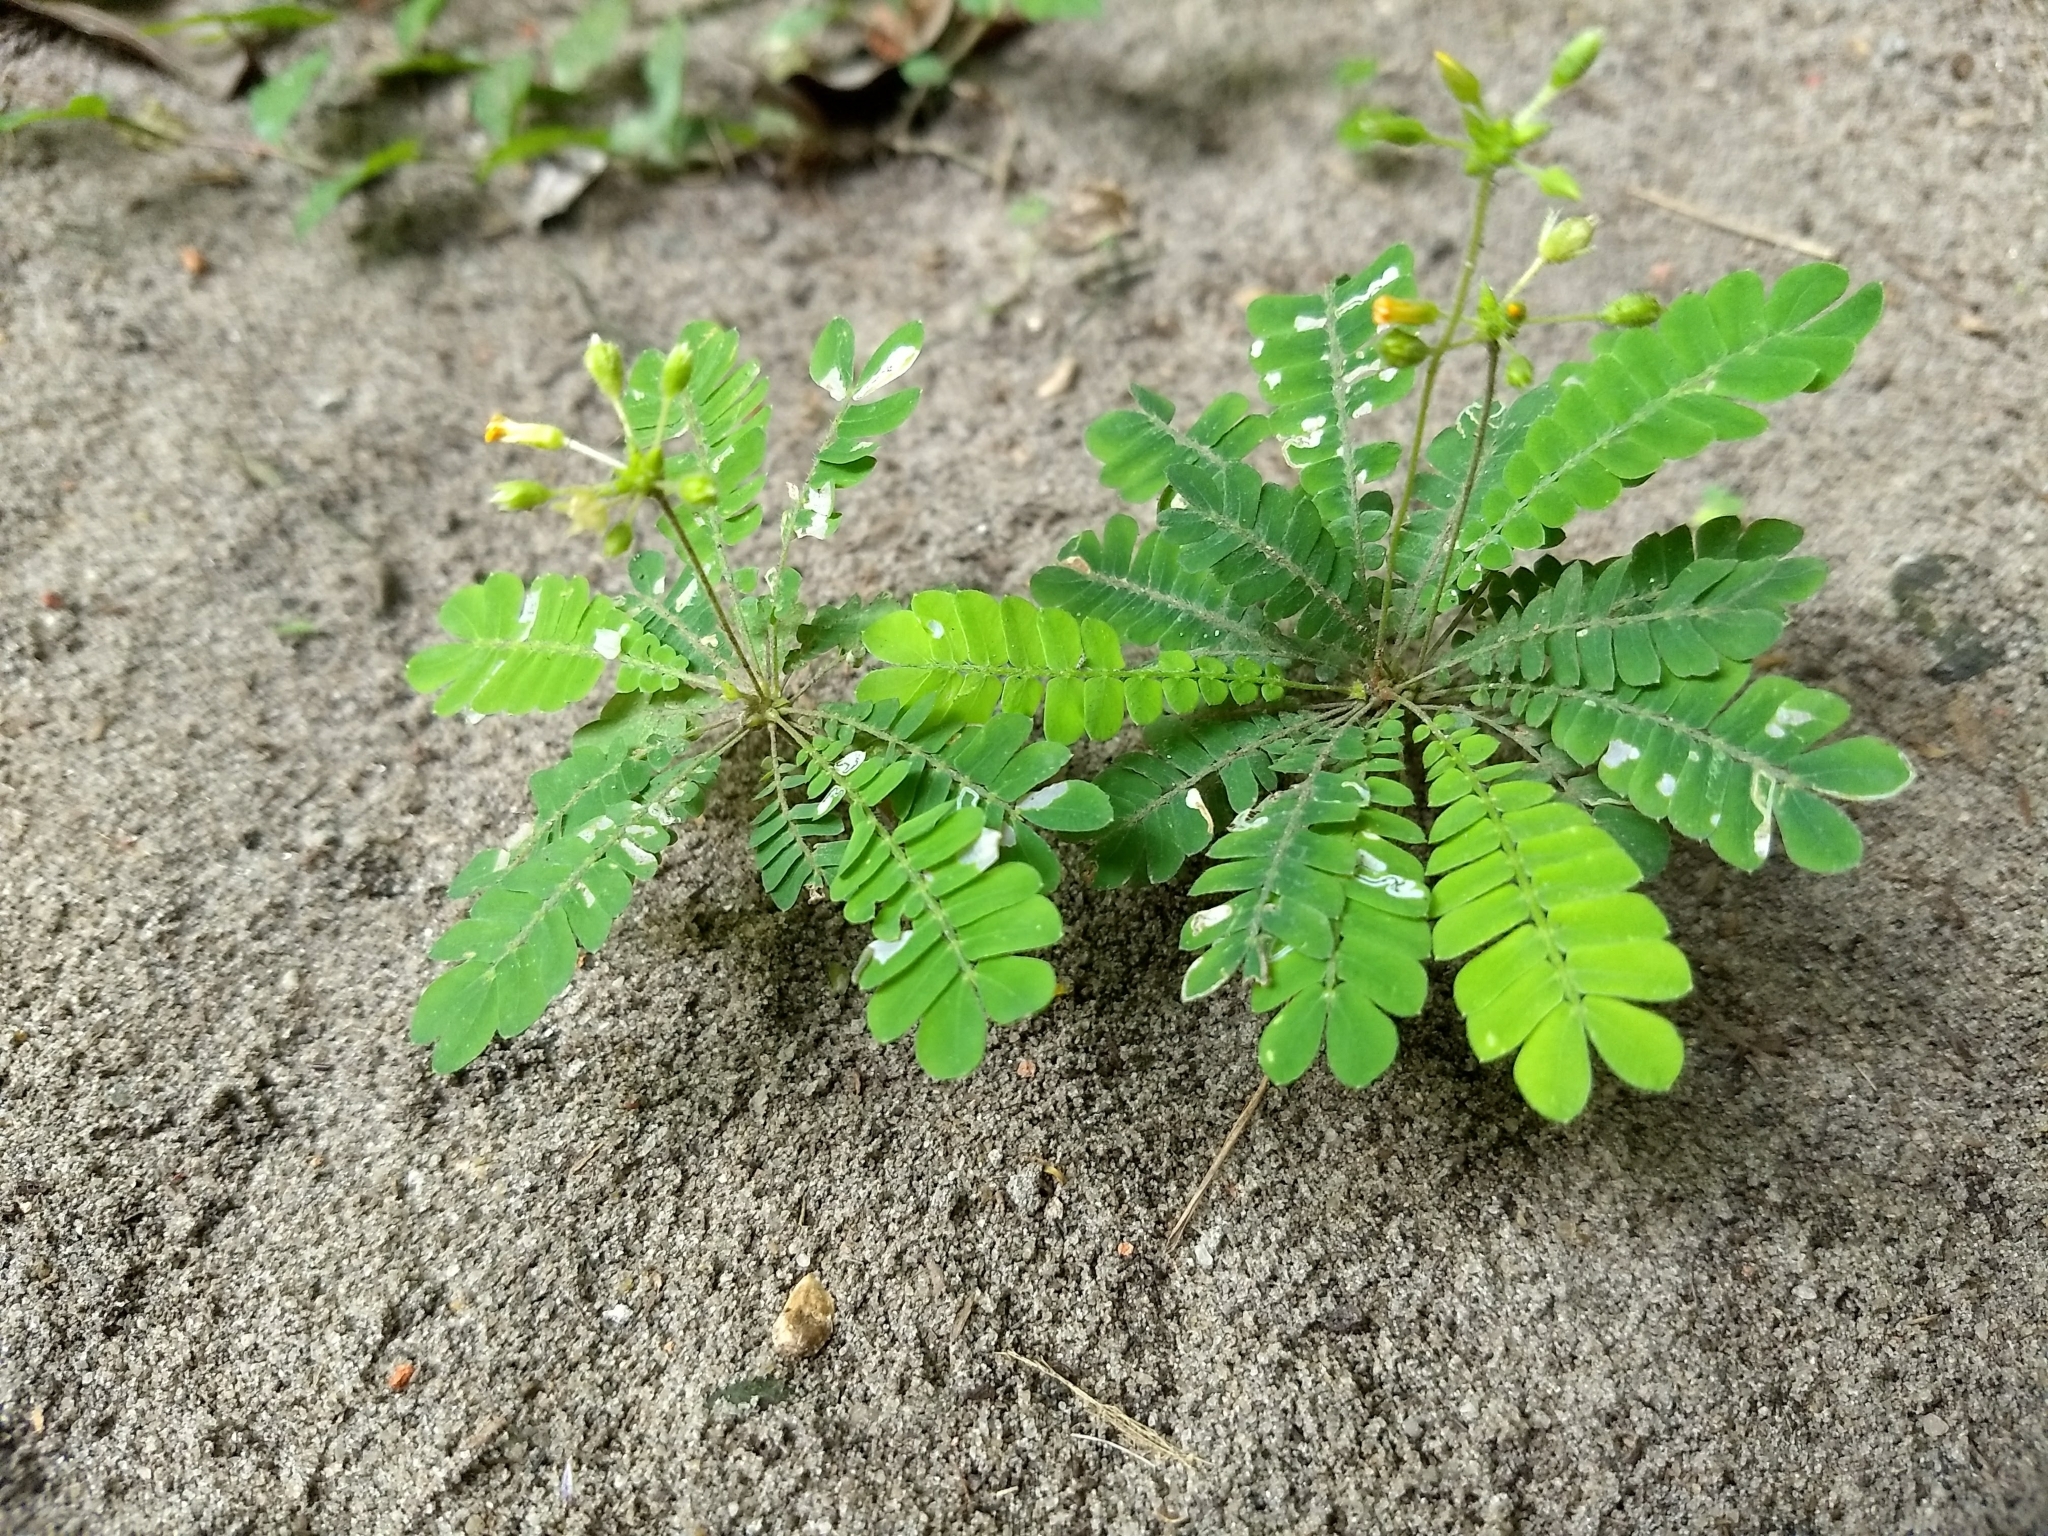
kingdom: Plantae
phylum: Tracheophyta
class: Magnoliopsida
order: Oxalidales
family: Oxalidaceae
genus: Biophytum
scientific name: Biophytum sensitivum
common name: Lifeplant
